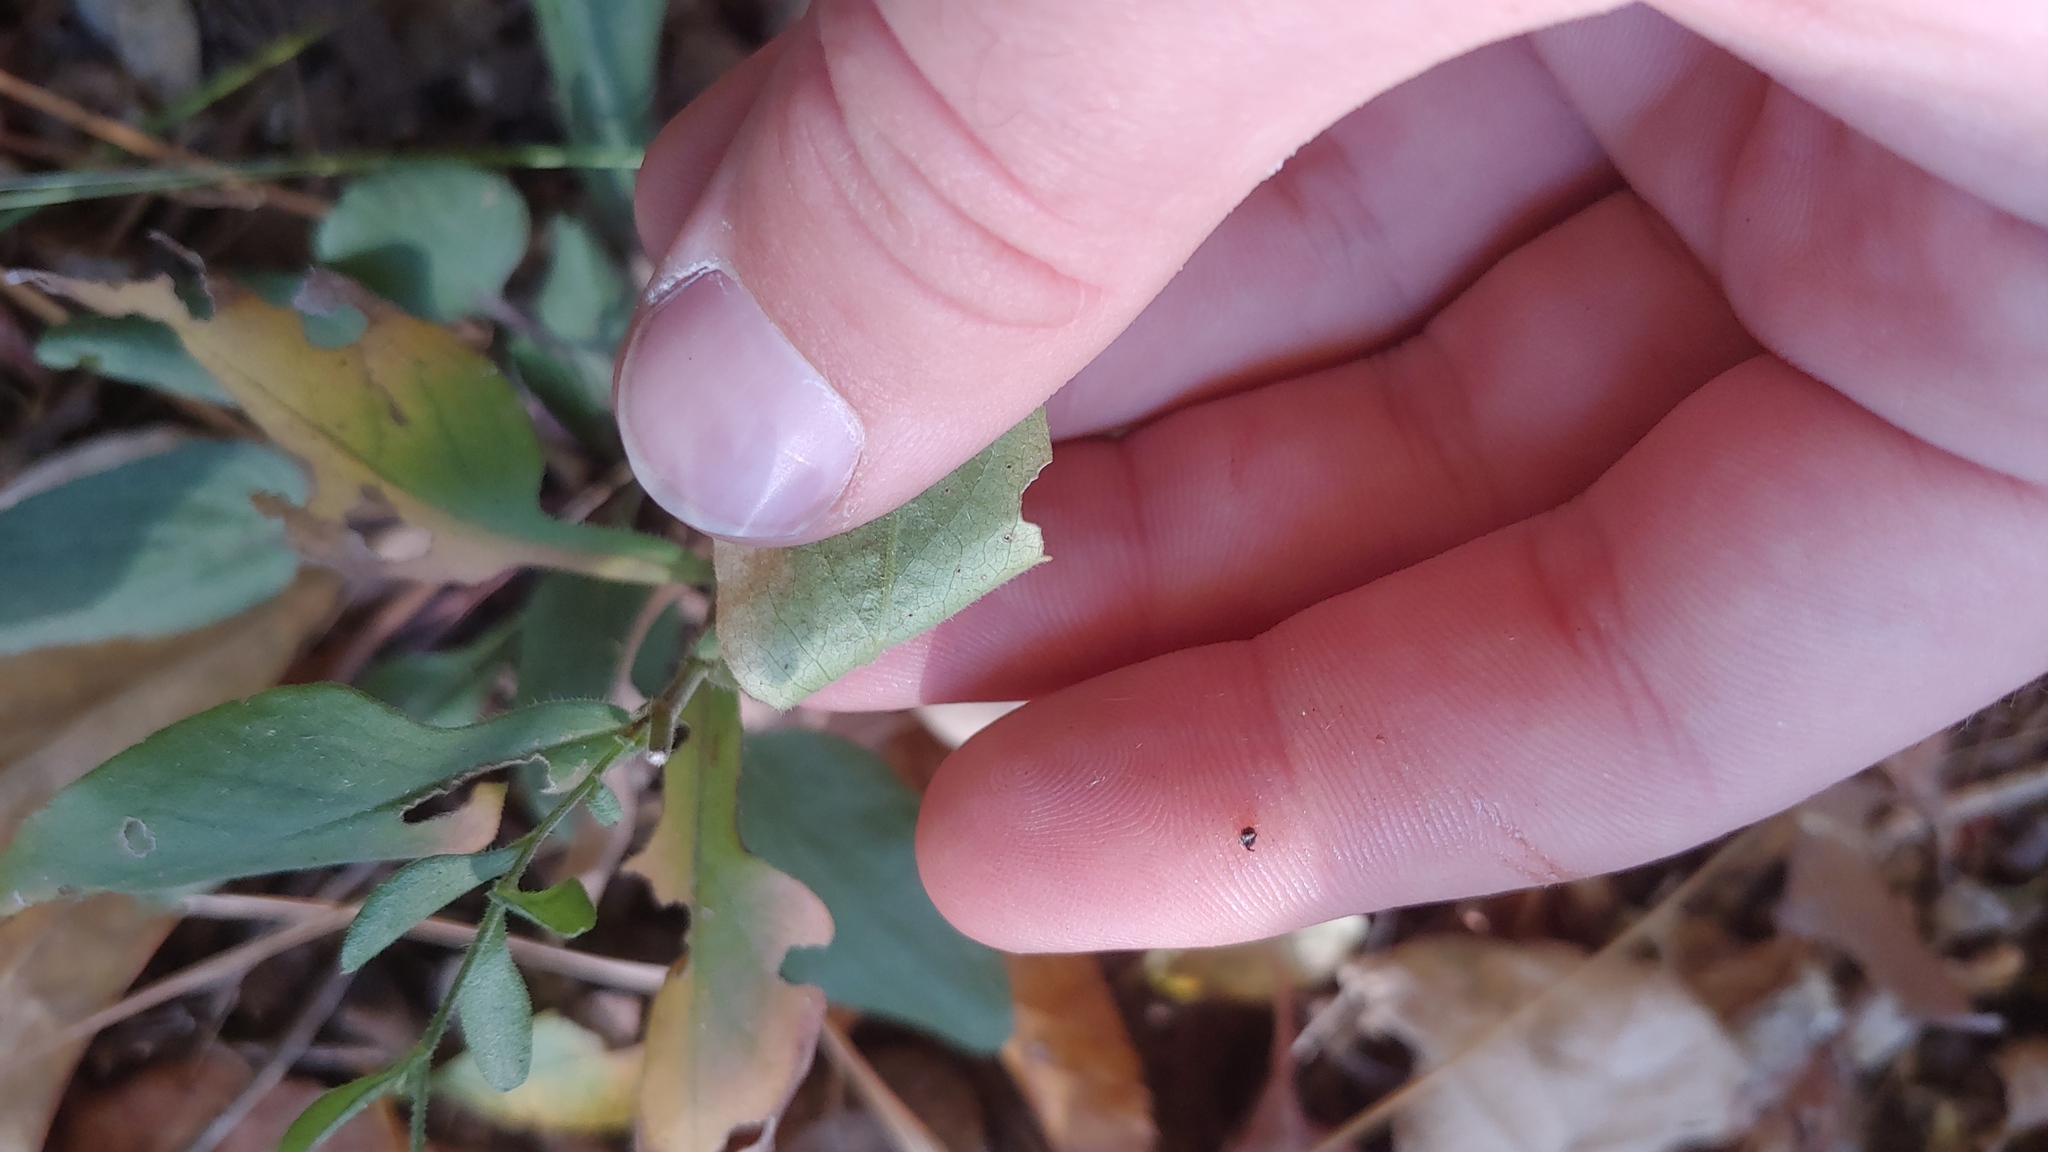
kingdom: Plantae
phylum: Tracheophyta
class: Magnoliopsida
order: Asterales
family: Asteraceae
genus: Symphyotrichum
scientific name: Symphyotrichum undulatum
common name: Clasping heart-leaf aster
